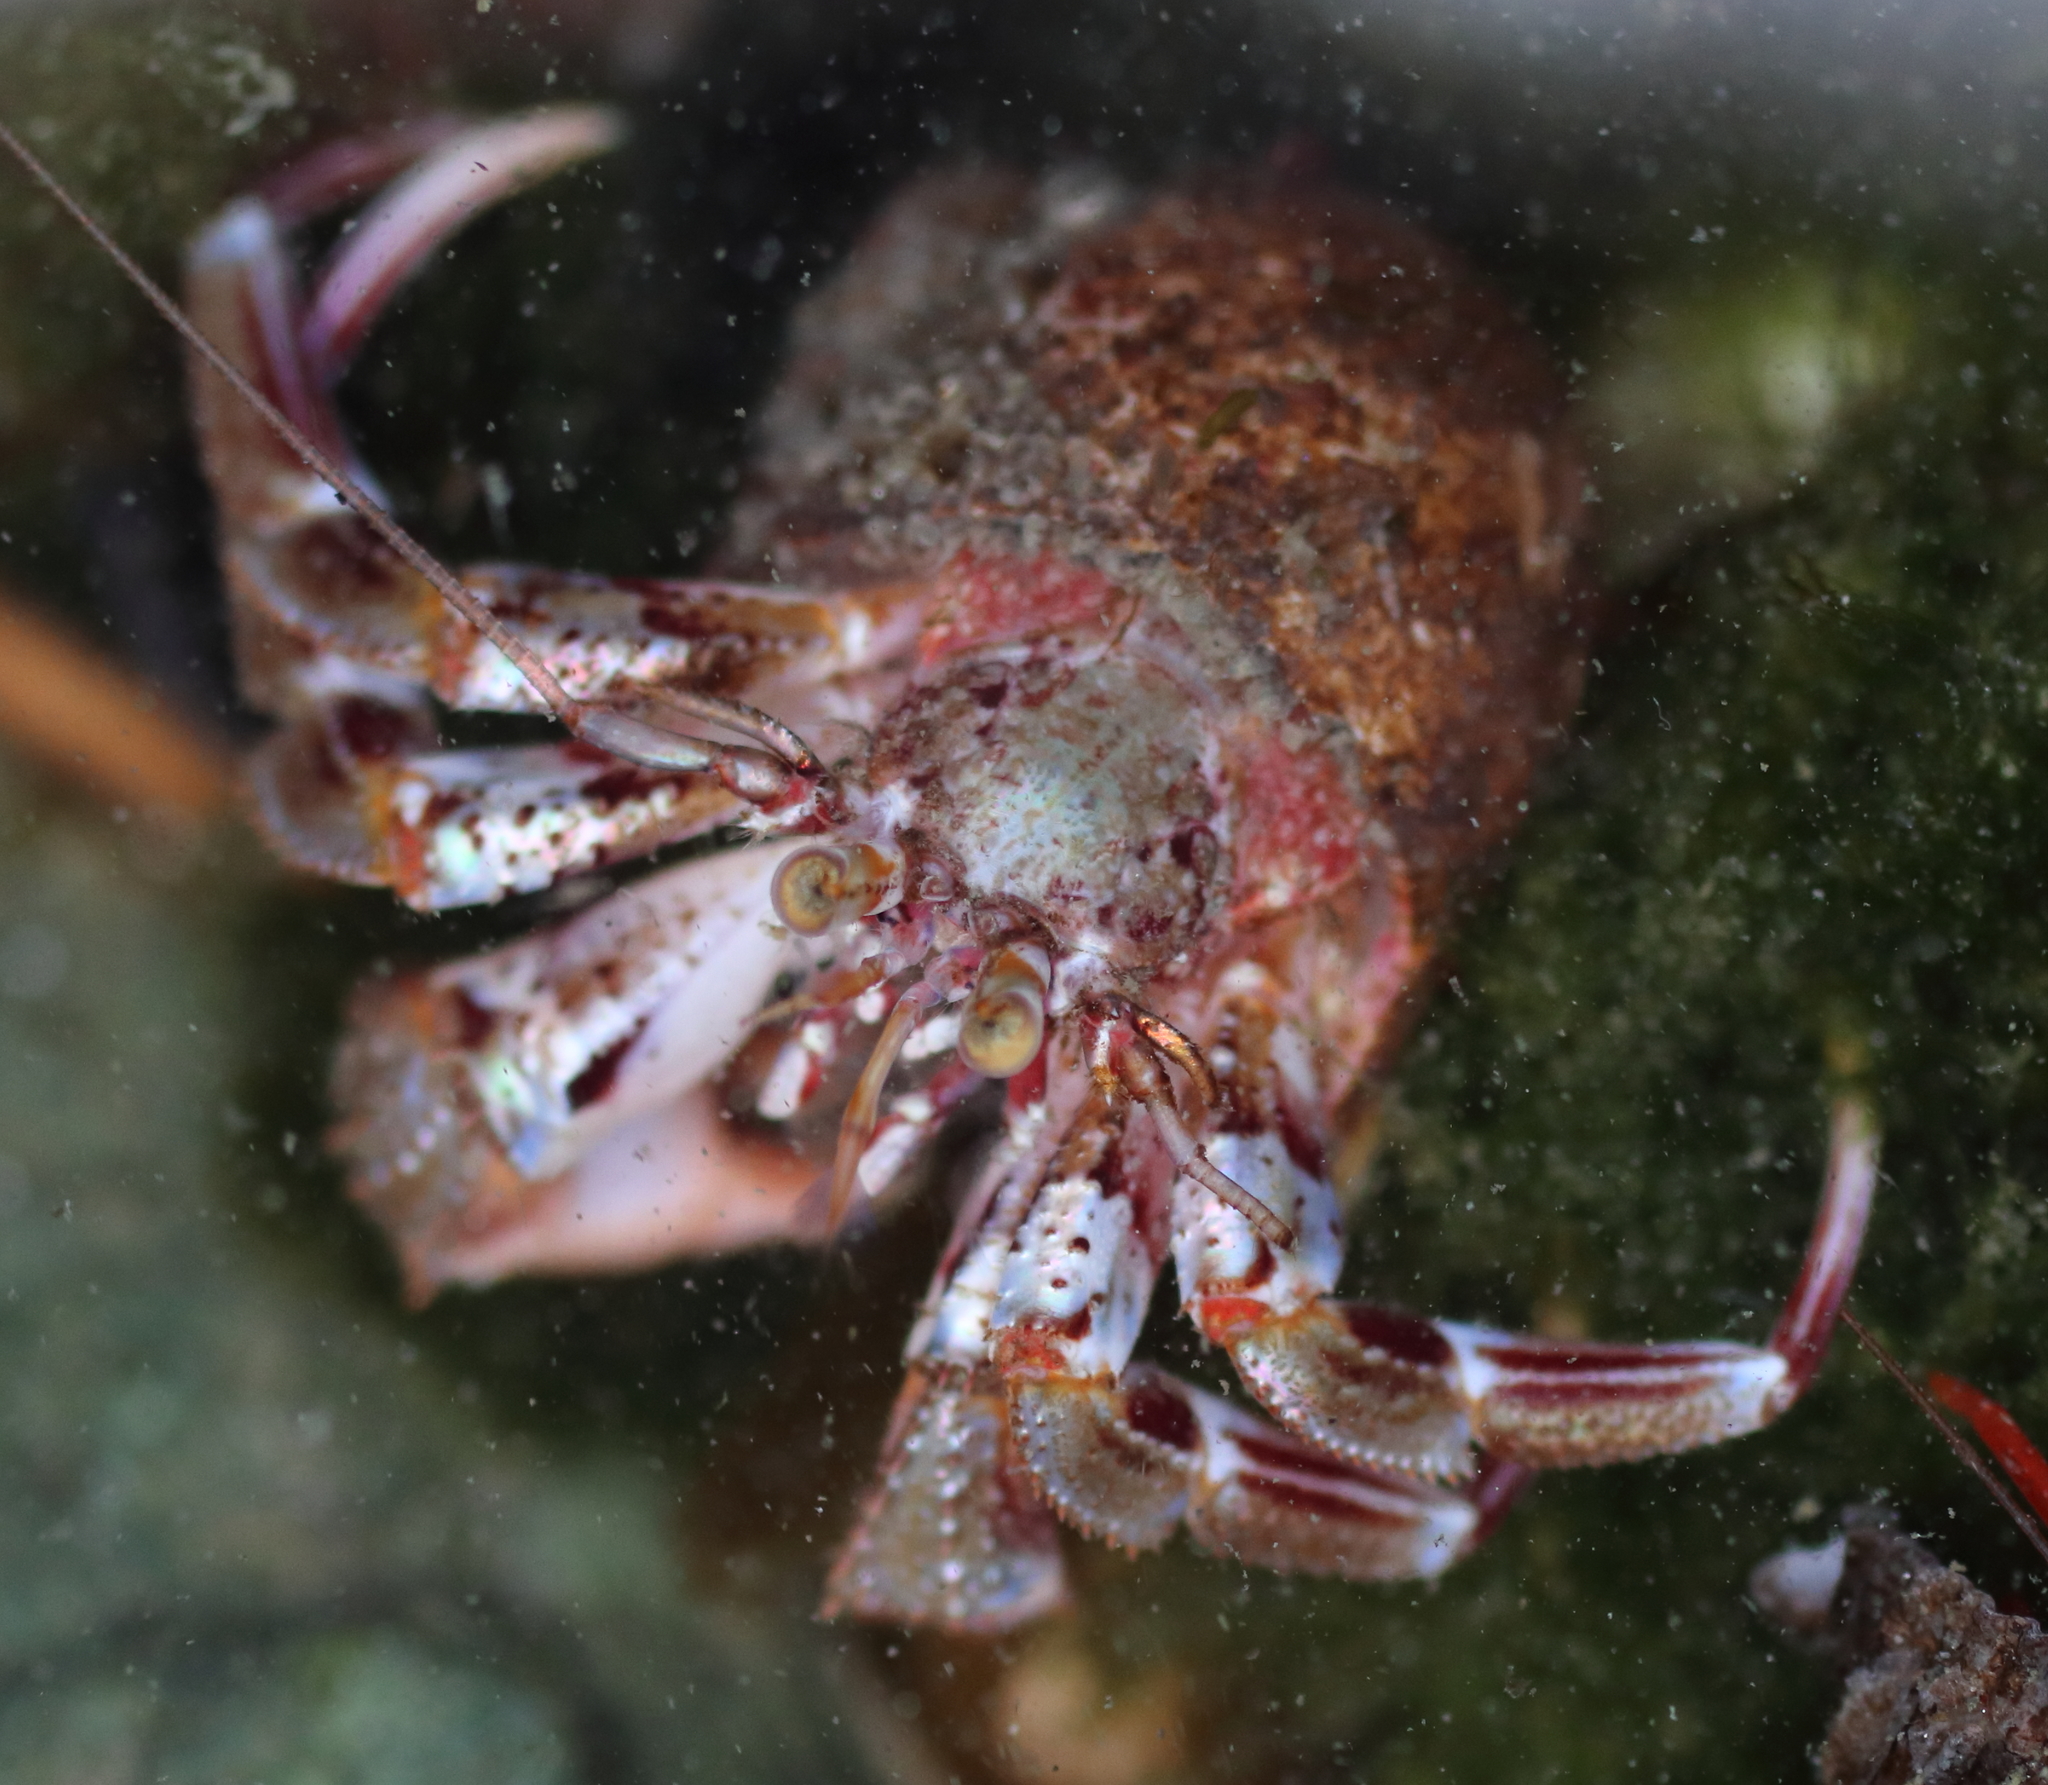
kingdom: Animalia
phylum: Arthropoda
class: Malacostraca
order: Decapoda
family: Paguridae
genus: Pagurus
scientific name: Pagurus ochotensis
